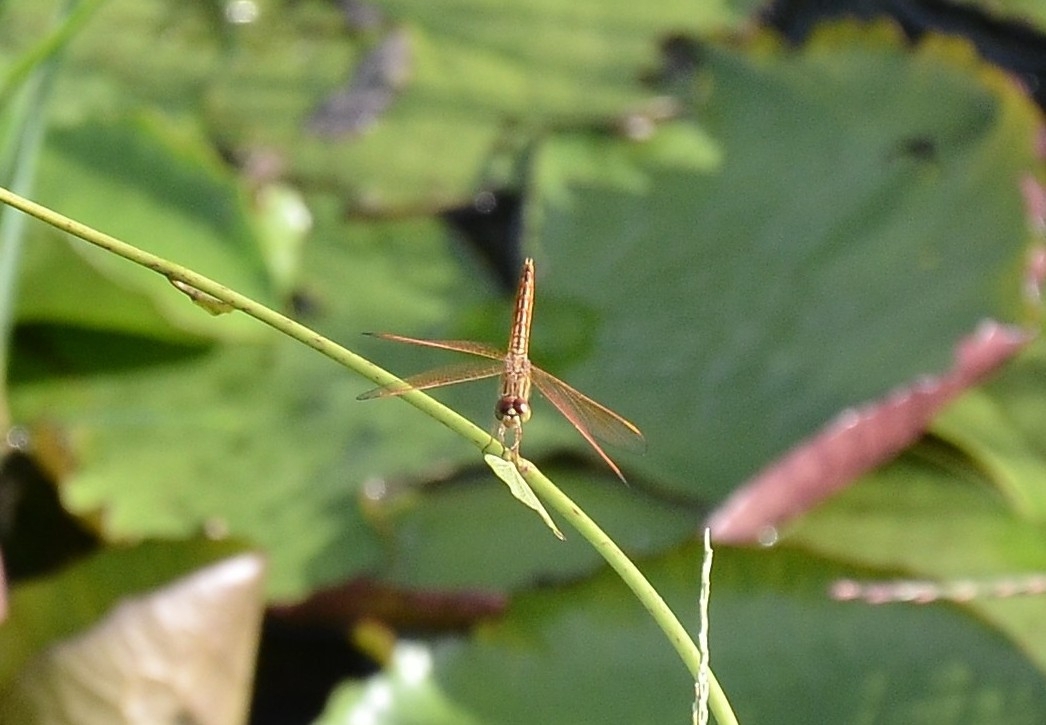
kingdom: Animalia
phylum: Arthropoda
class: Insecta
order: Odonata
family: Libellulidae
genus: Brachythemis
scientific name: Brachythemis contaminata
